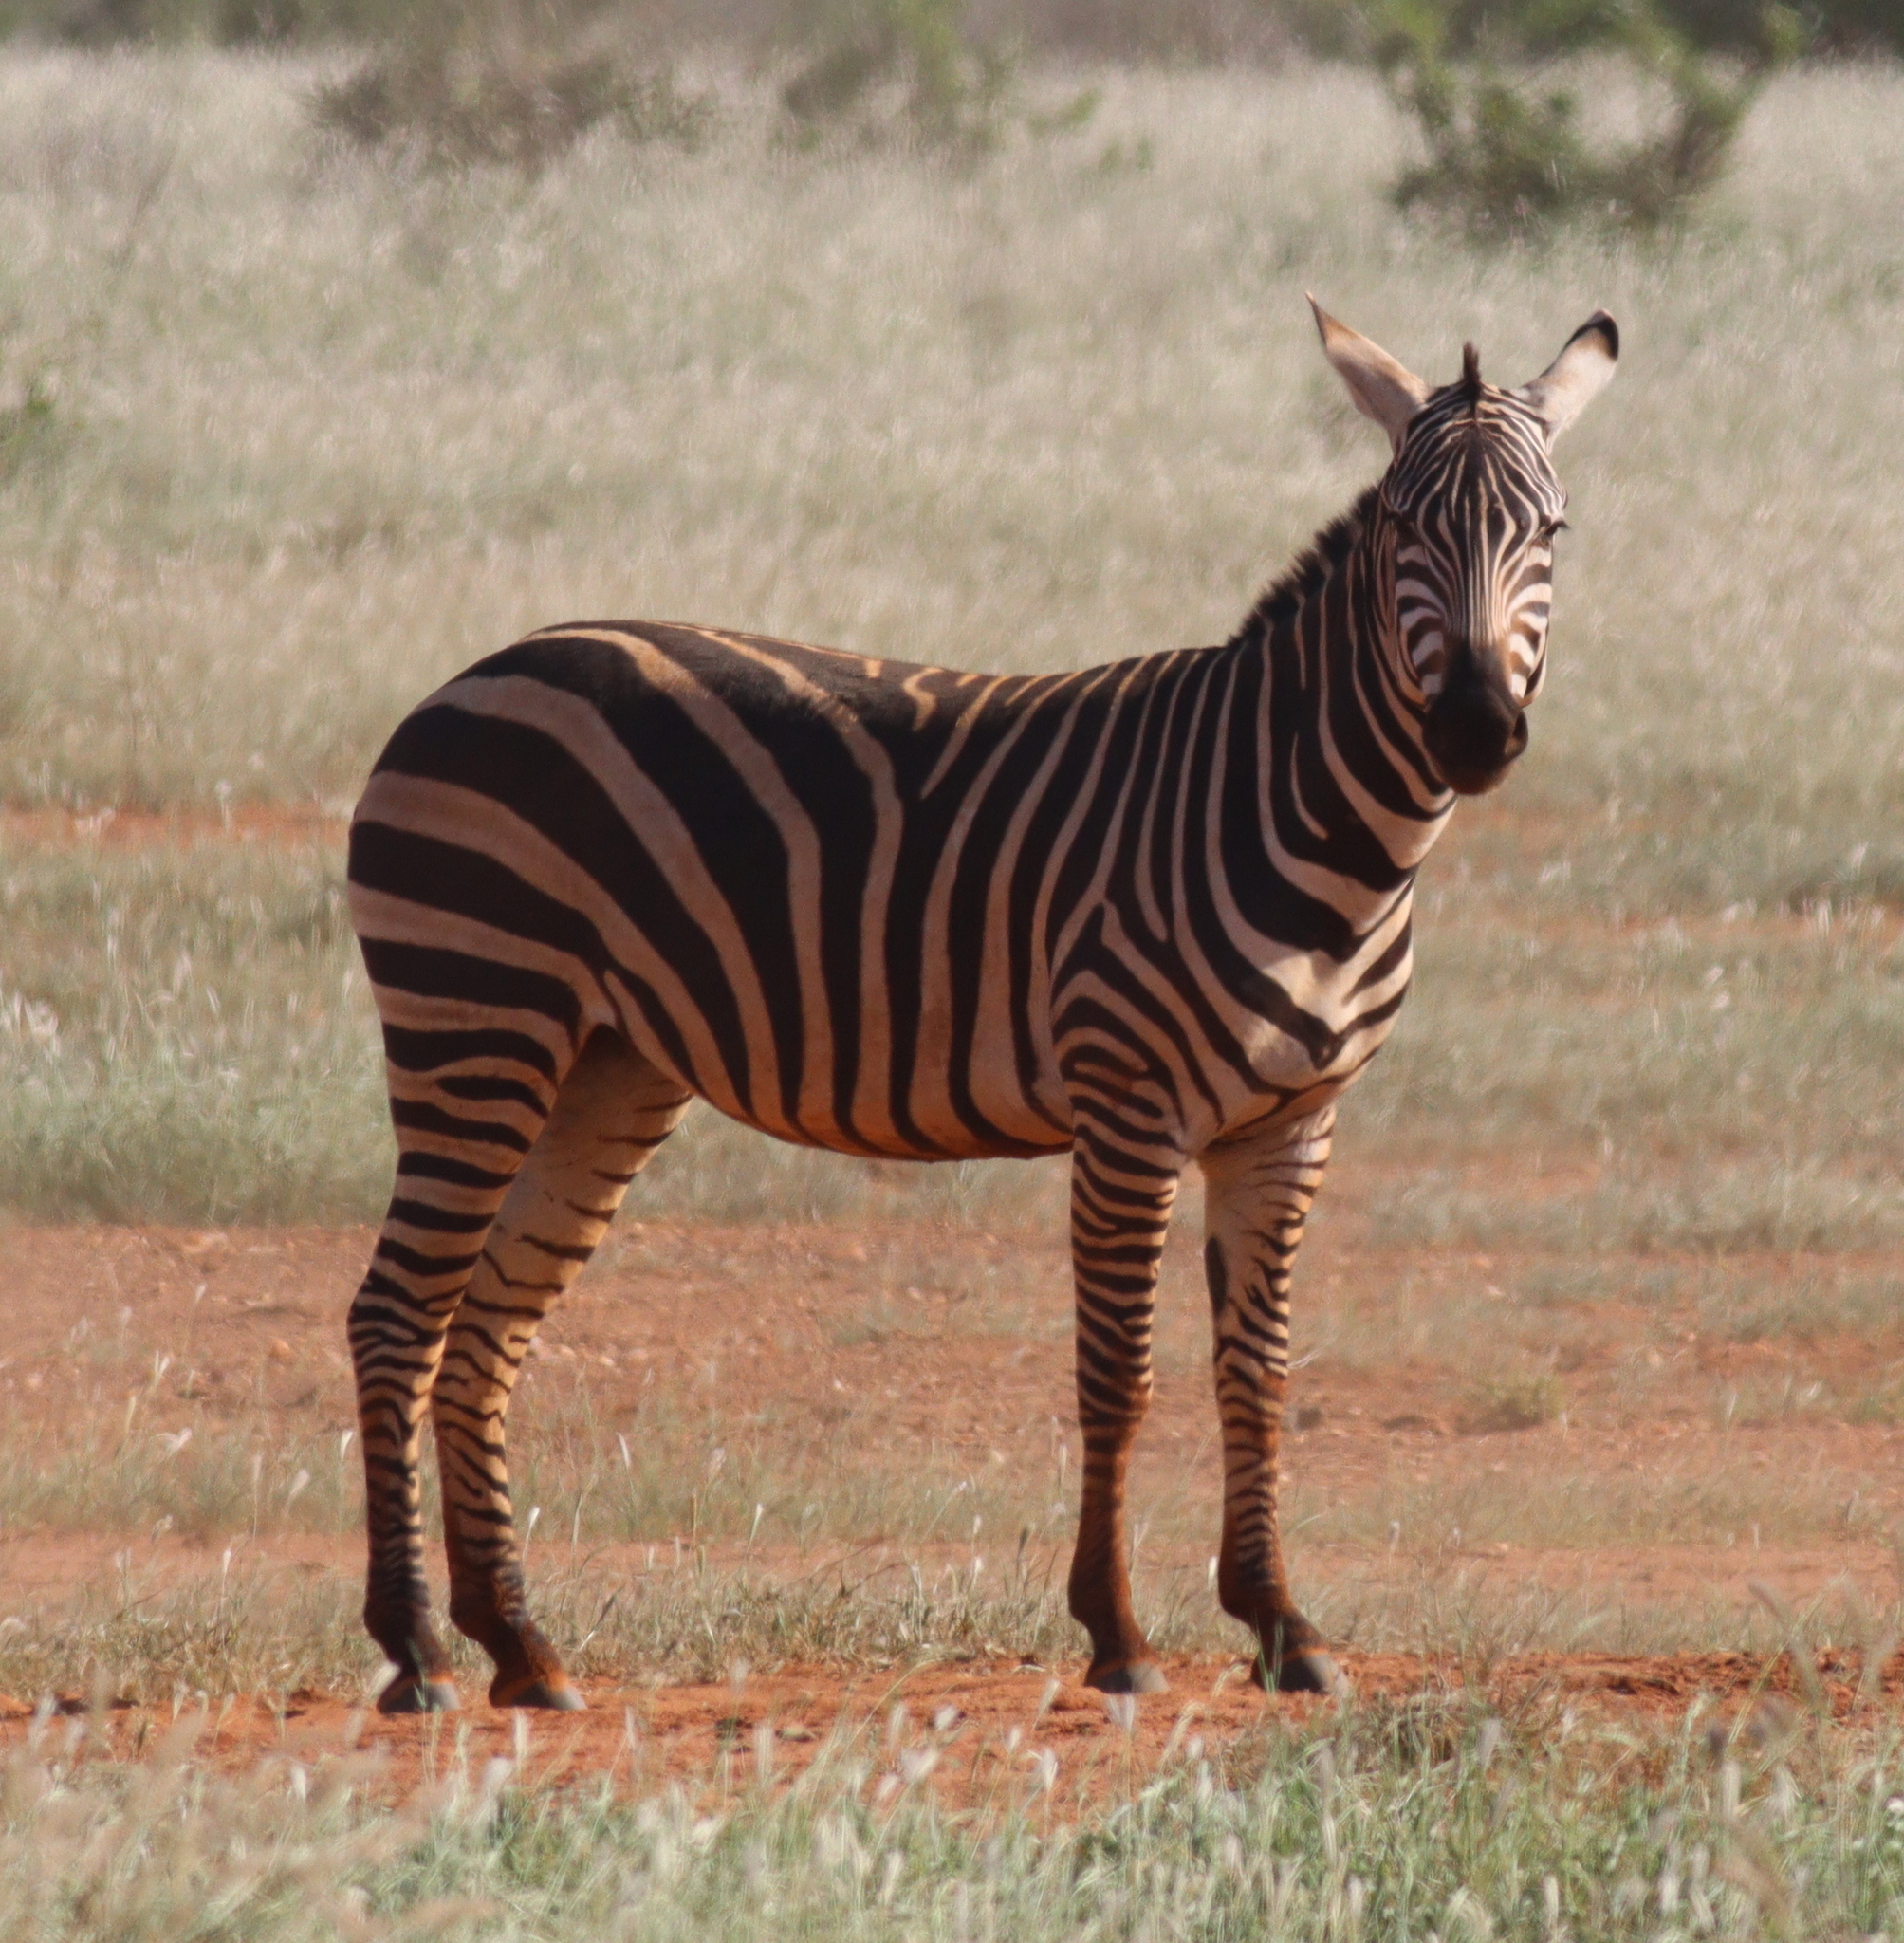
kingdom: Animalia
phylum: Chordata
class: Mammalia
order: Perissodactyla
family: Equidae
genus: Equus
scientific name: Equus quagga
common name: Plains zebra
